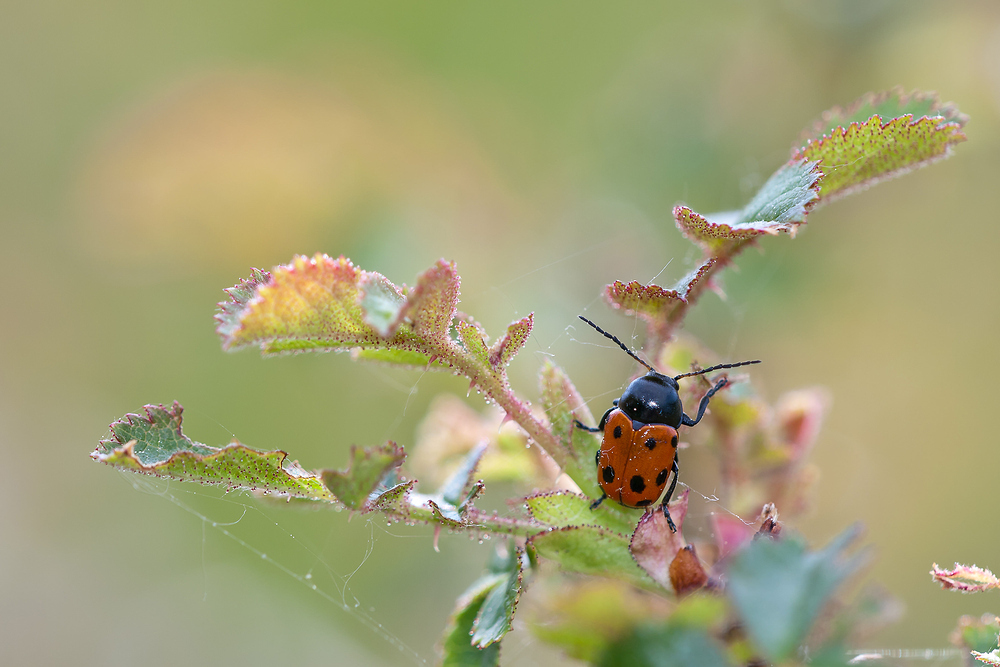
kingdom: Animalia
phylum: Arthropoda
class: Insecta
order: Coleoptera
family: Chrysomelidae
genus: Cryptocephalus
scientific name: Cryptocephalus primarius
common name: Rock-rose pot beetle
